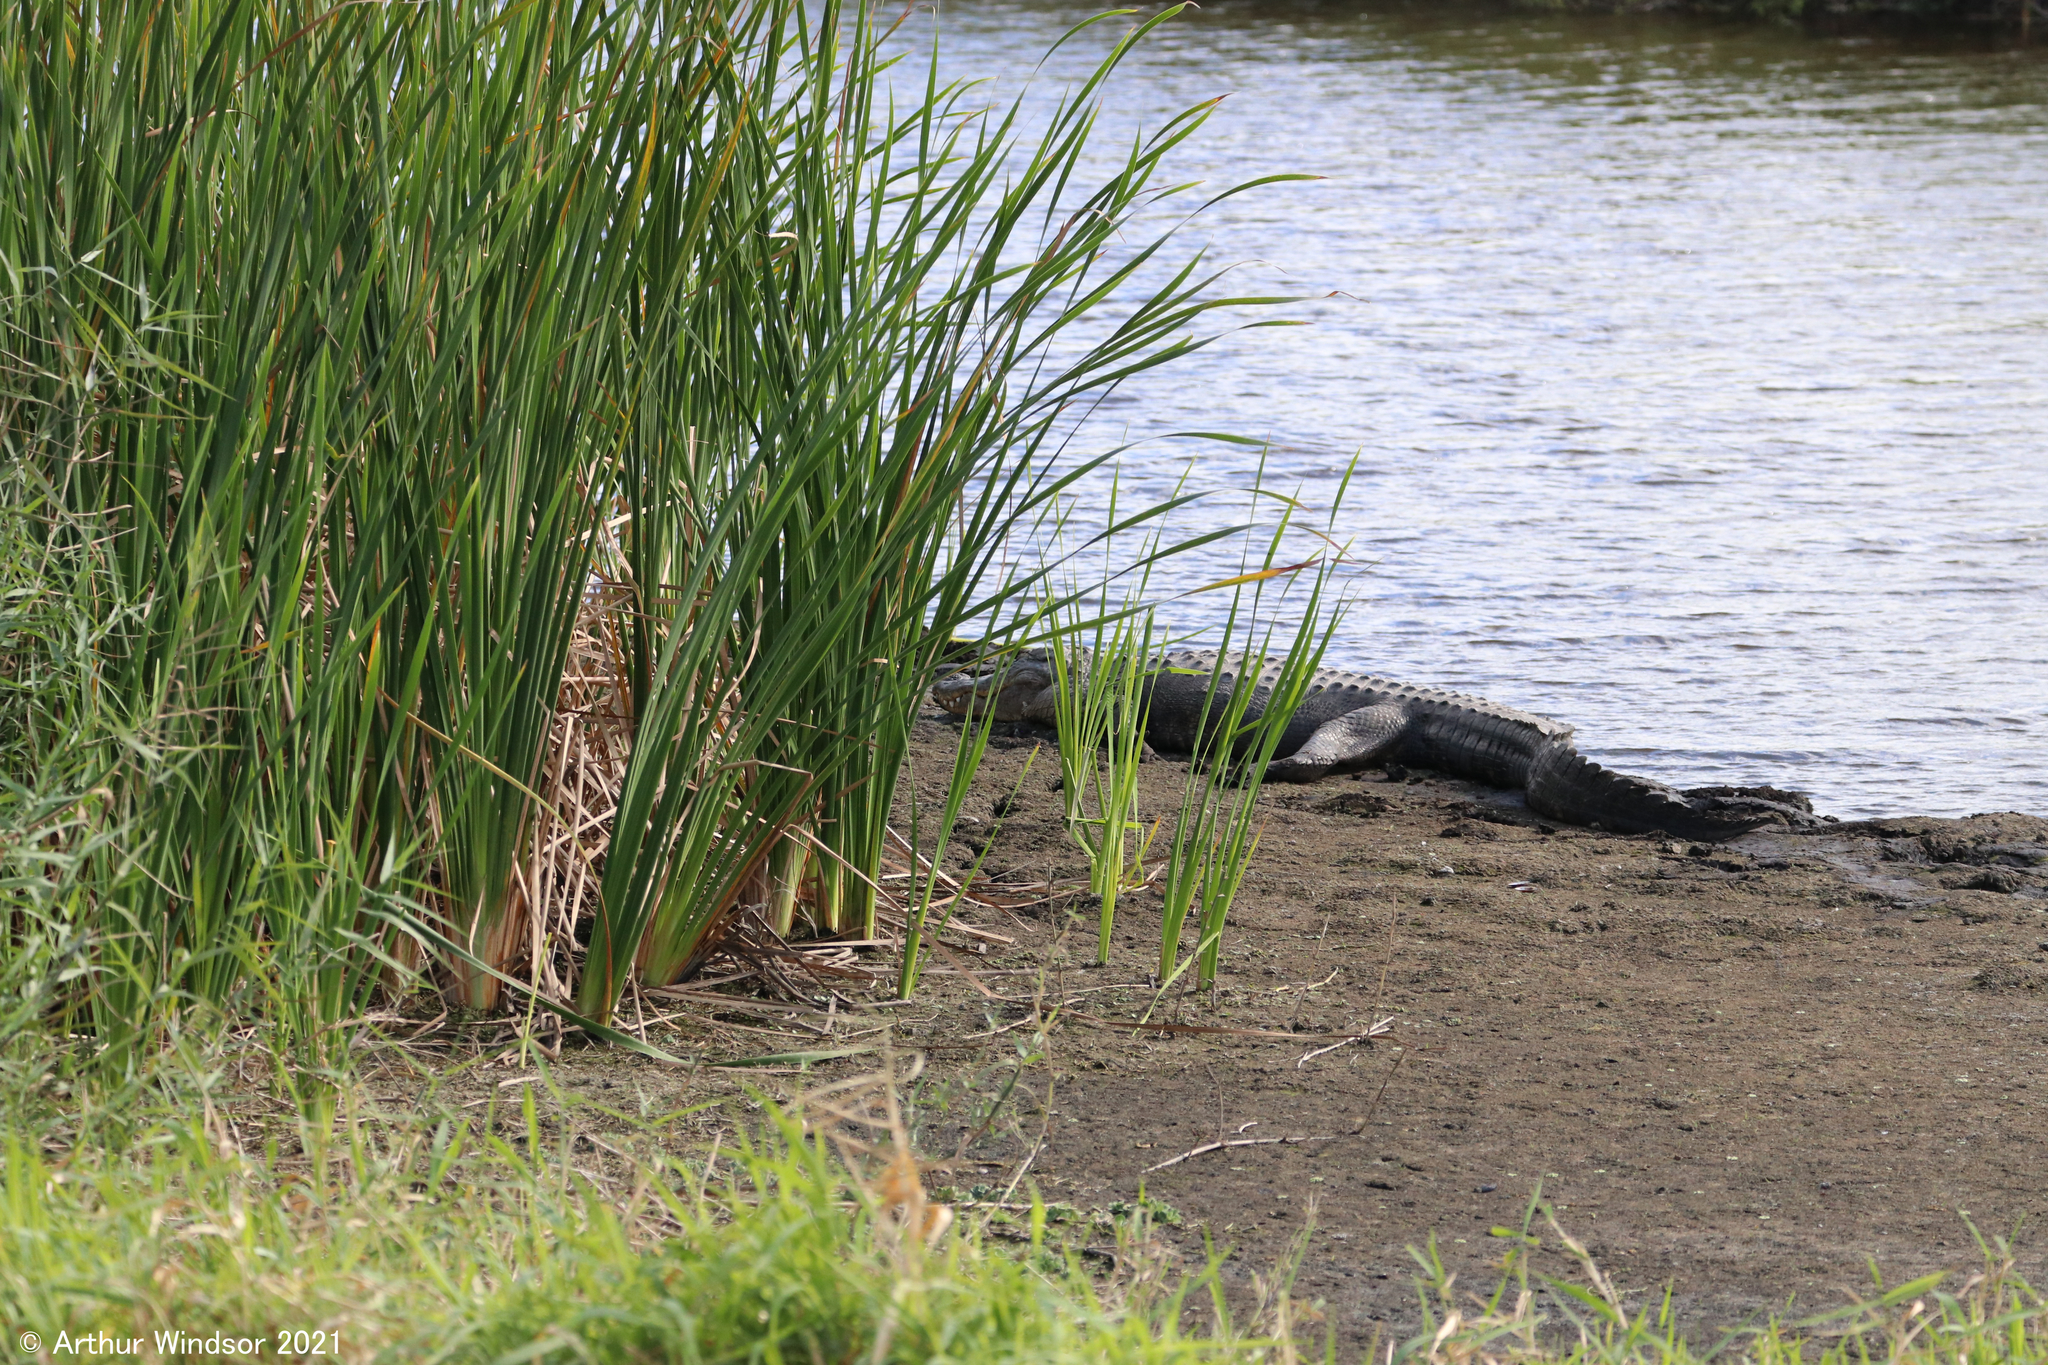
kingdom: Animalia
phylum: Chordata
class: Crocodylia
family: Alligatoridae
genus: Alligator
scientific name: Alligator mississippiensis
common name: American alligator
